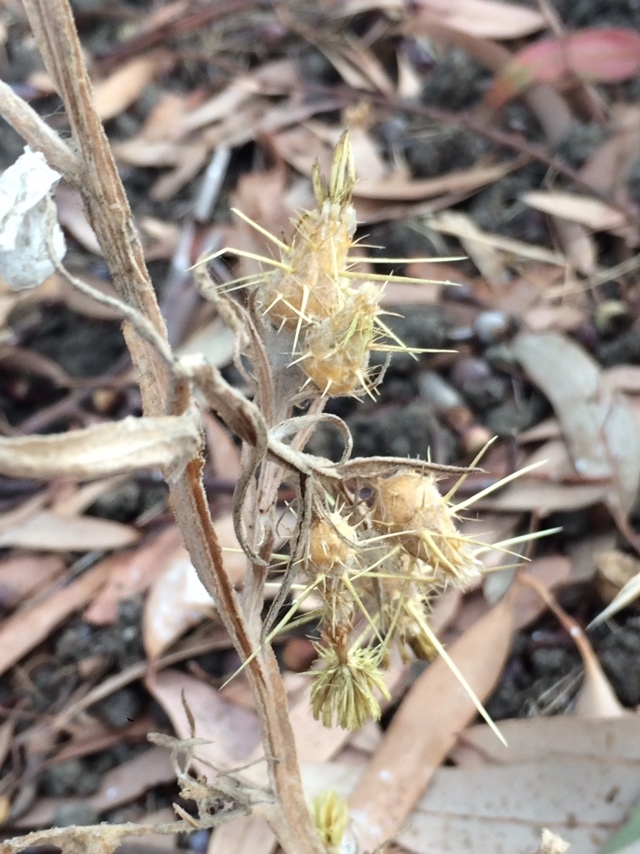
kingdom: Plantae
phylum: Tracheophyta
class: Magnoliopsida
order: Asterales
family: Asteraceae
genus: Centaurea
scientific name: Centaurea solstitialis
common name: Yellow star-thistle
